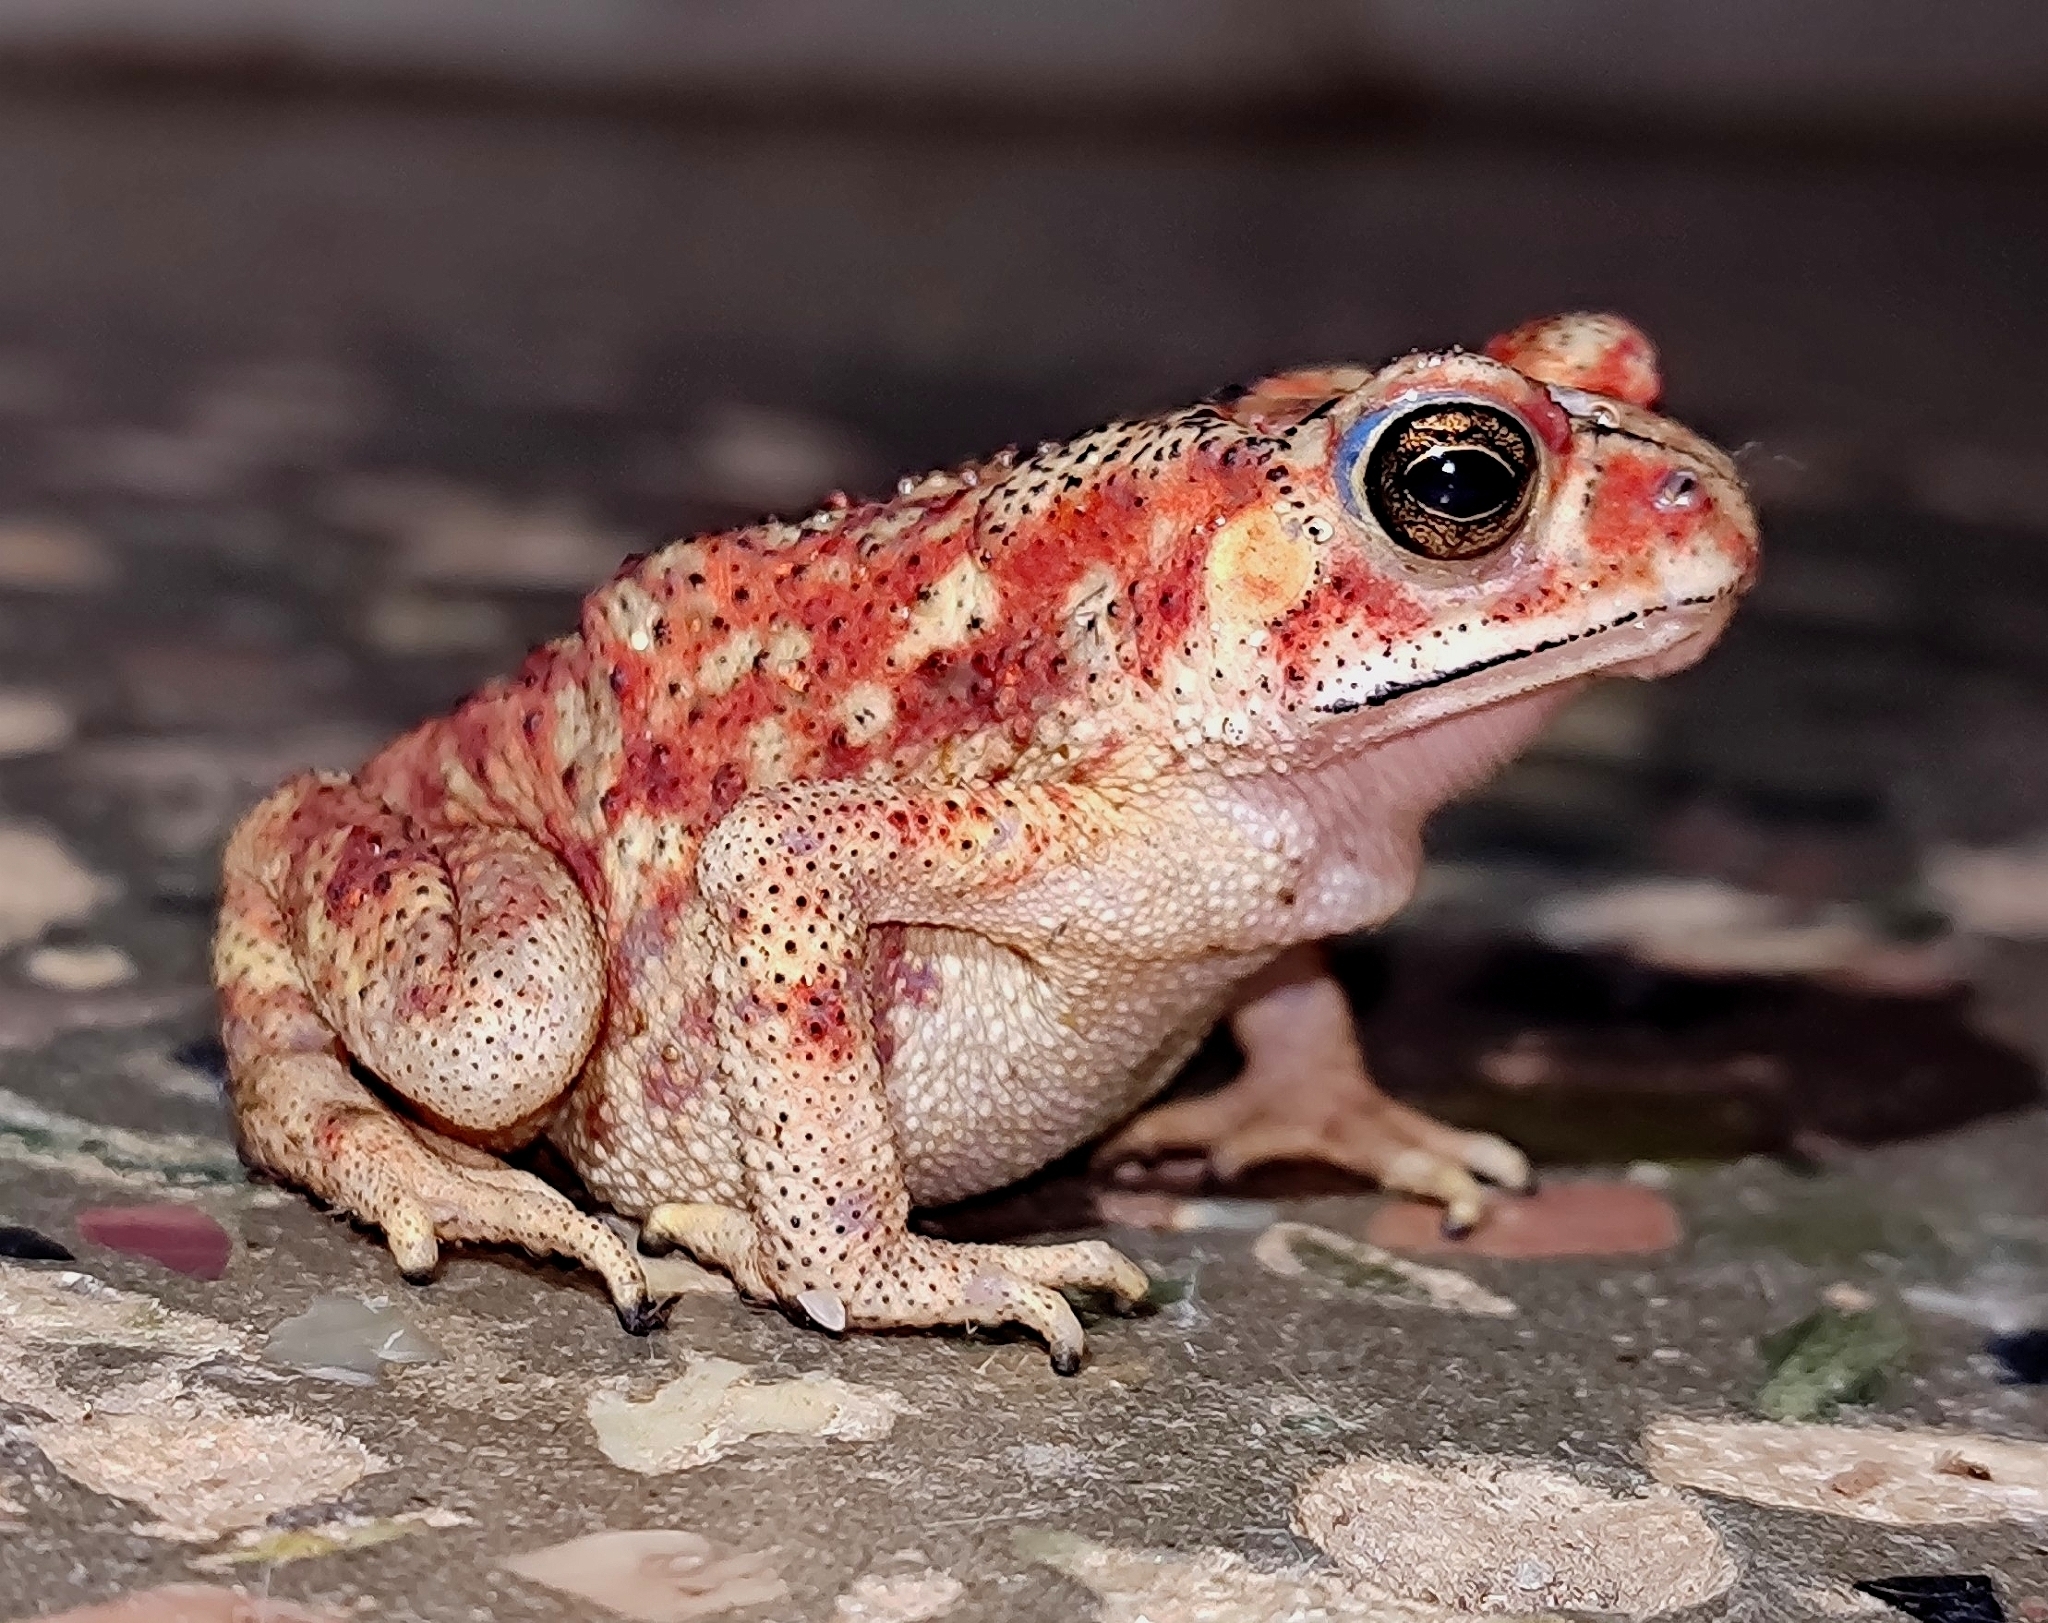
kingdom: Animalia
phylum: Chordata
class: Amphibia
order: Anura
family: Bufonidae
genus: Duttaphrynus
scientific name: Duttaphrynus melanostictus
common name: Common sunda toad
